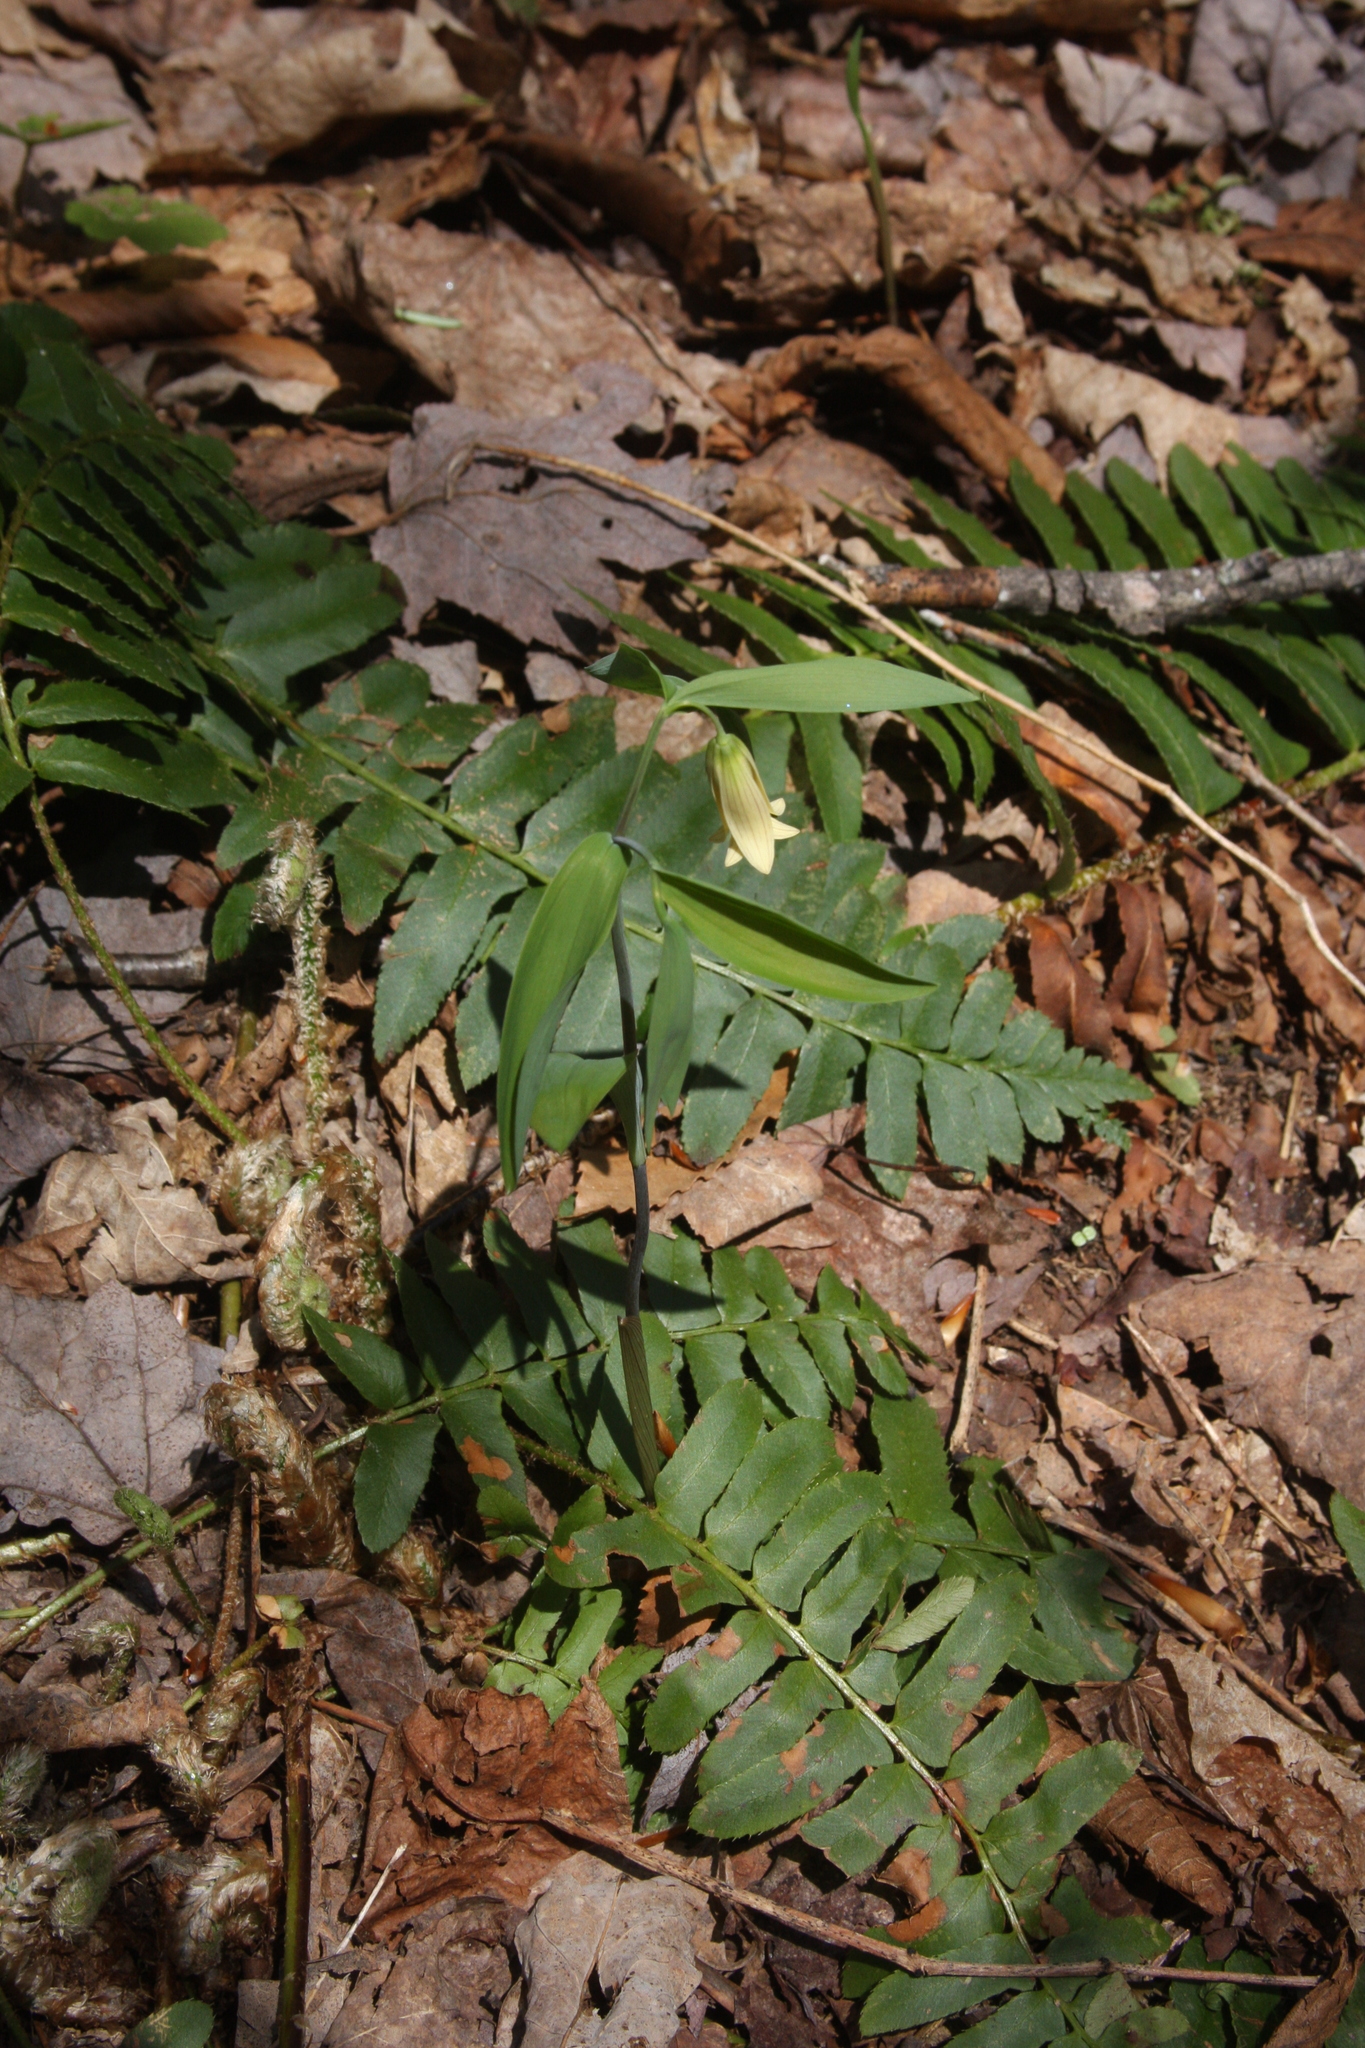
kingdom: Plantae
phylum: Tracheophyta
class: Liliopsida
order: Liliales
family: Colchicaceae
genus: Uvularia
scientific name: Uvularia sessilifolia
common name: Straw-lily
